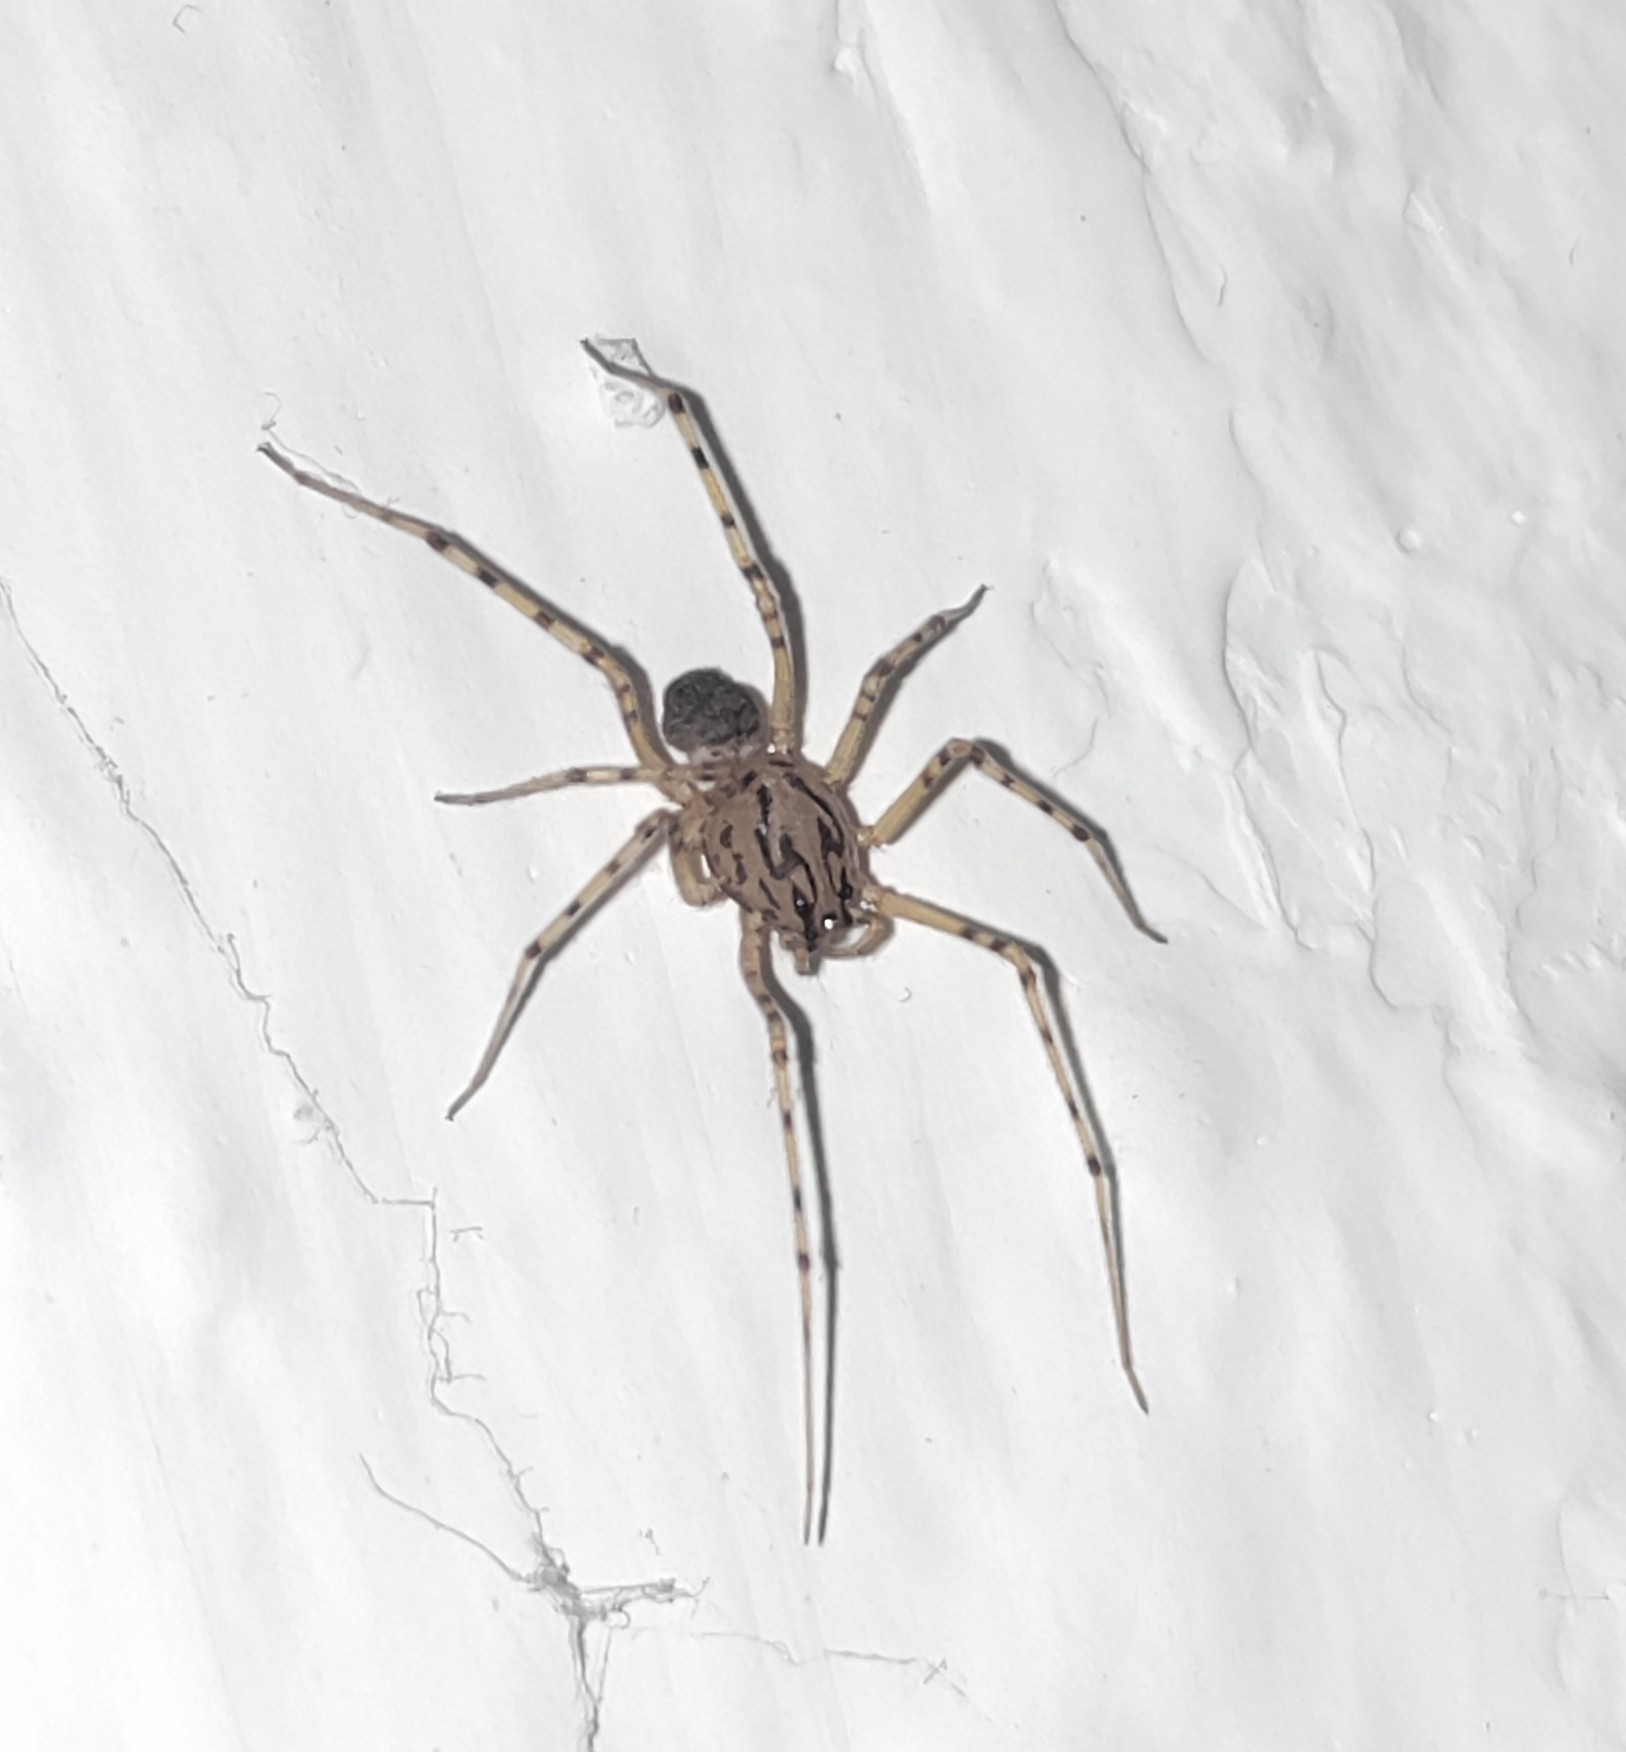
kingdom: Animalia
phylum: Arthropoda
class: Arachnida
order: Araneae
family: Scytodidae
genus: Scytodes
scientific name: Scytodes thoracica
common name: Spitting spider
